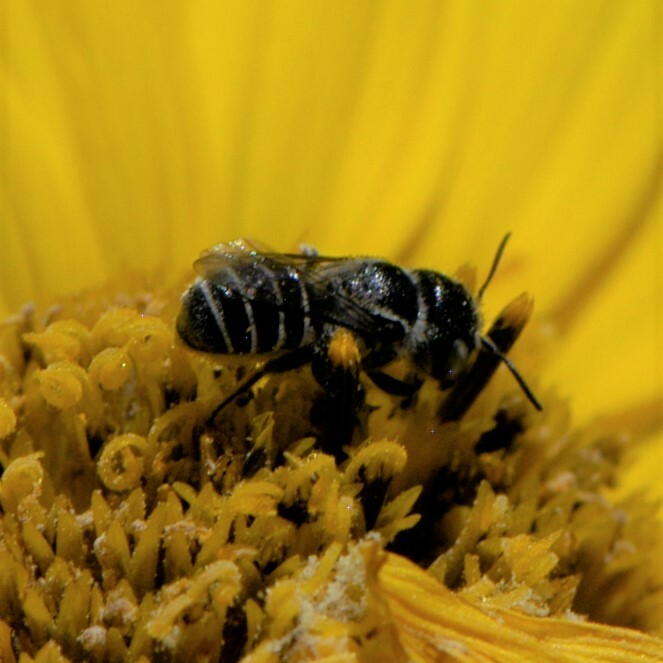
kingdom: Animalia
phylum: Arthropoda
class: Insecta
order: Hymenoptera
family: Megachilidae
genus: Ashmeadiella
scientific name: Ashmeadiella
